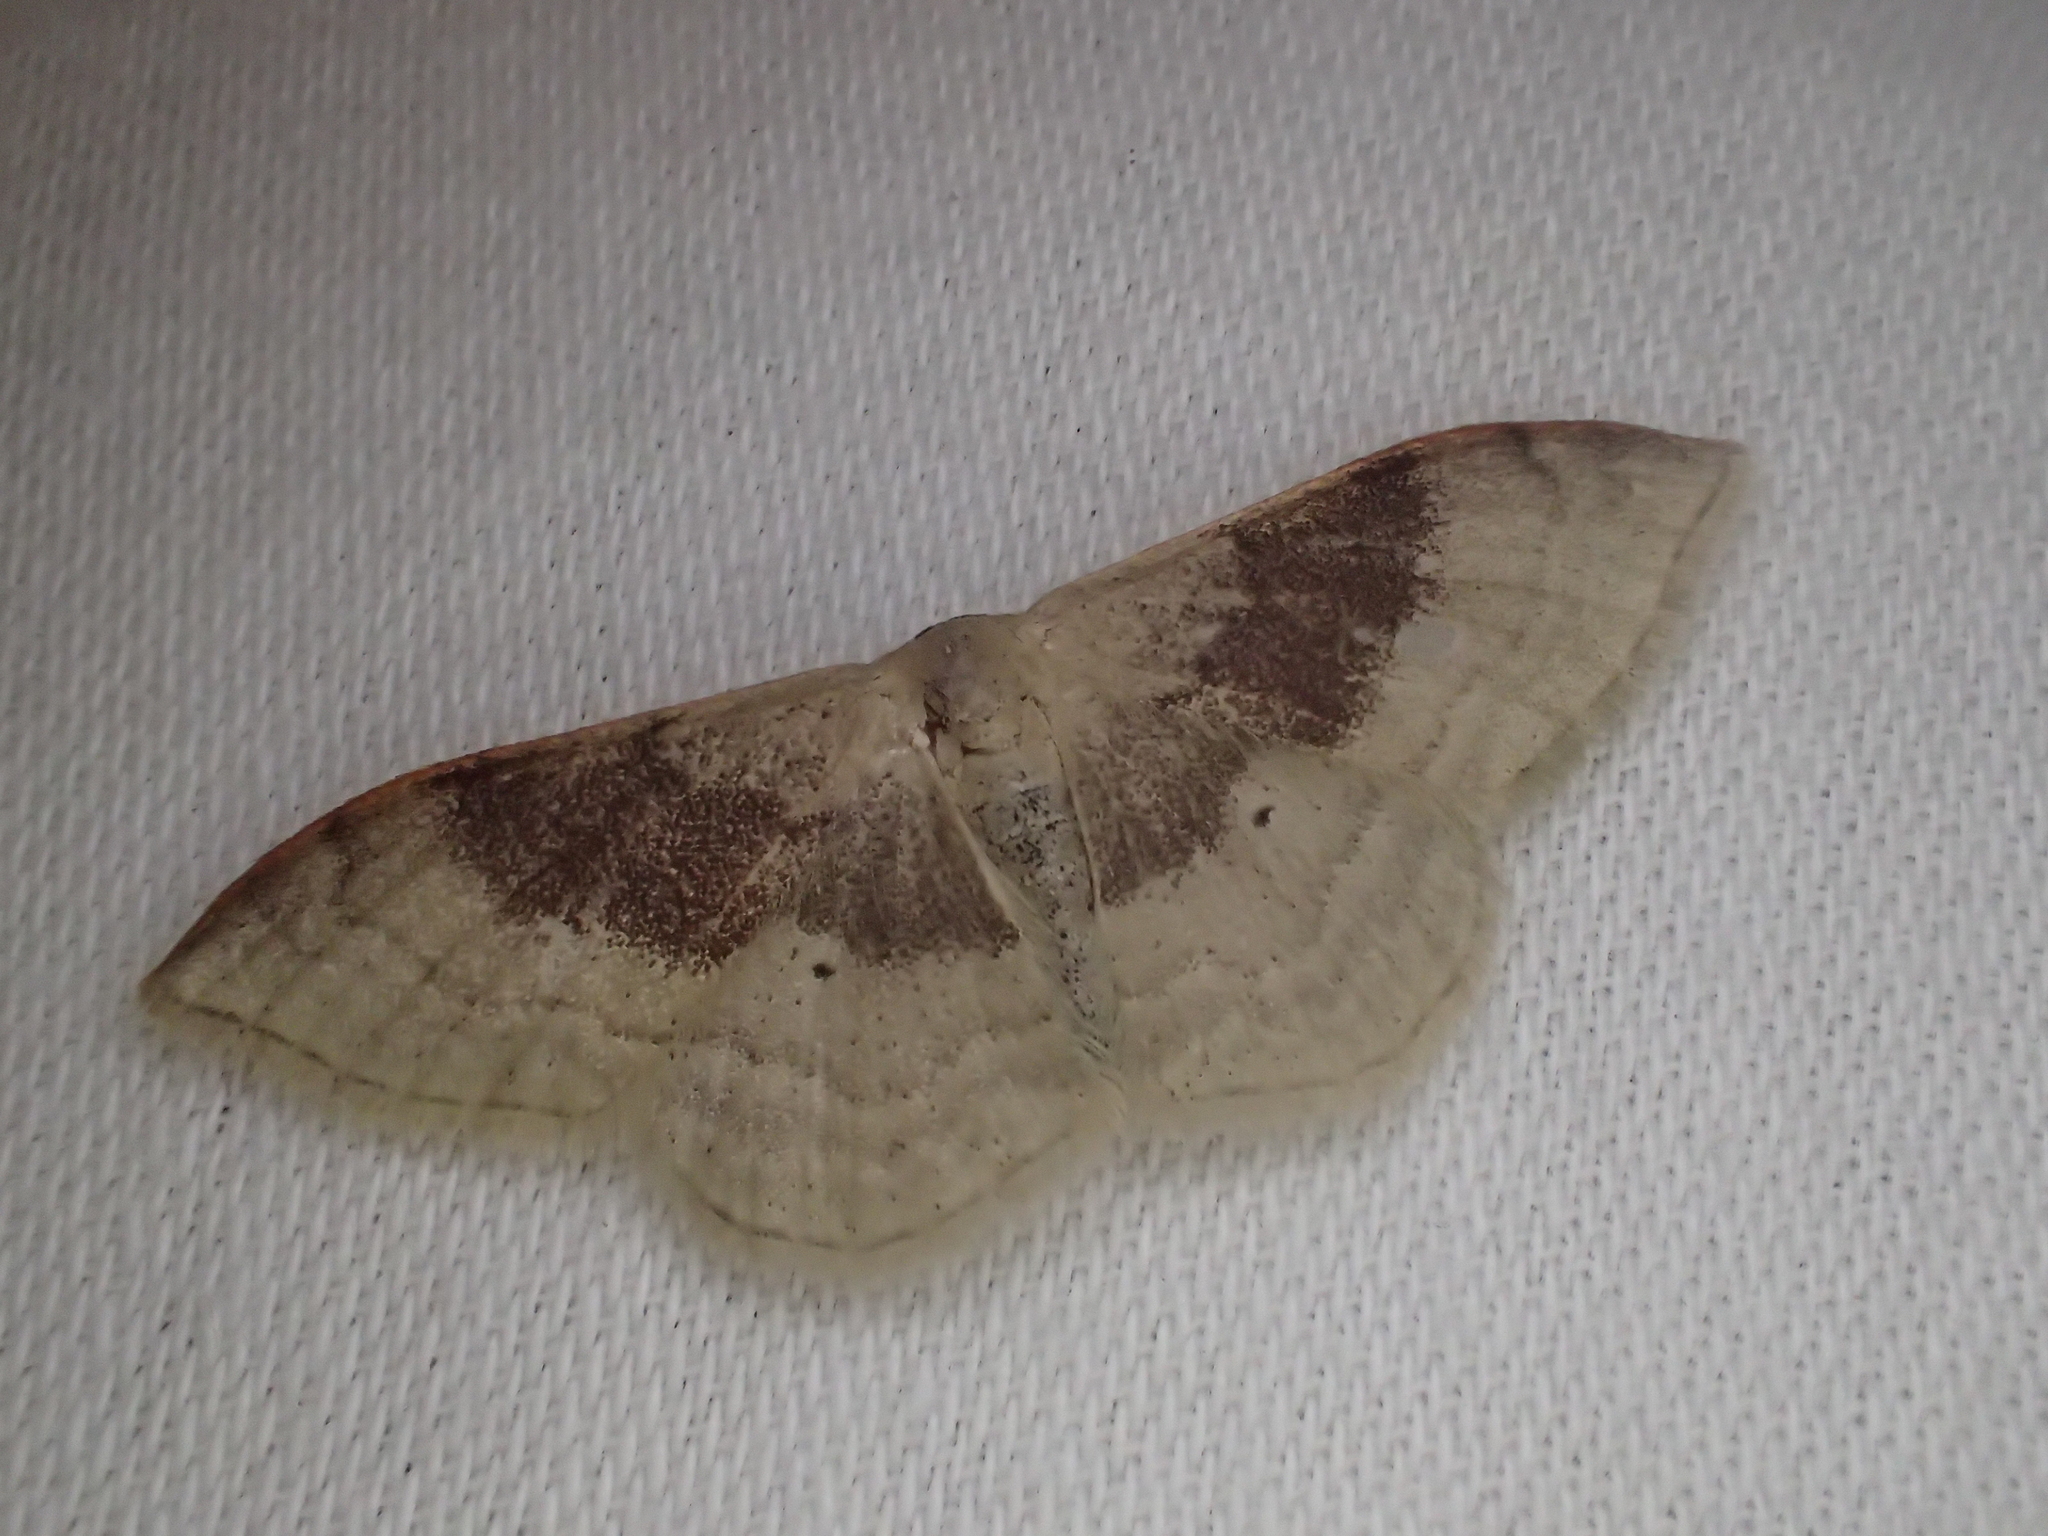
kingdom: Animalia
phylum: Arthropoda
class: Insecta
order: Lepidoptera
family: Geometridae
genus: Idaea
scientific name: Idaea degeneraria
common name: Portland ribbon wave
